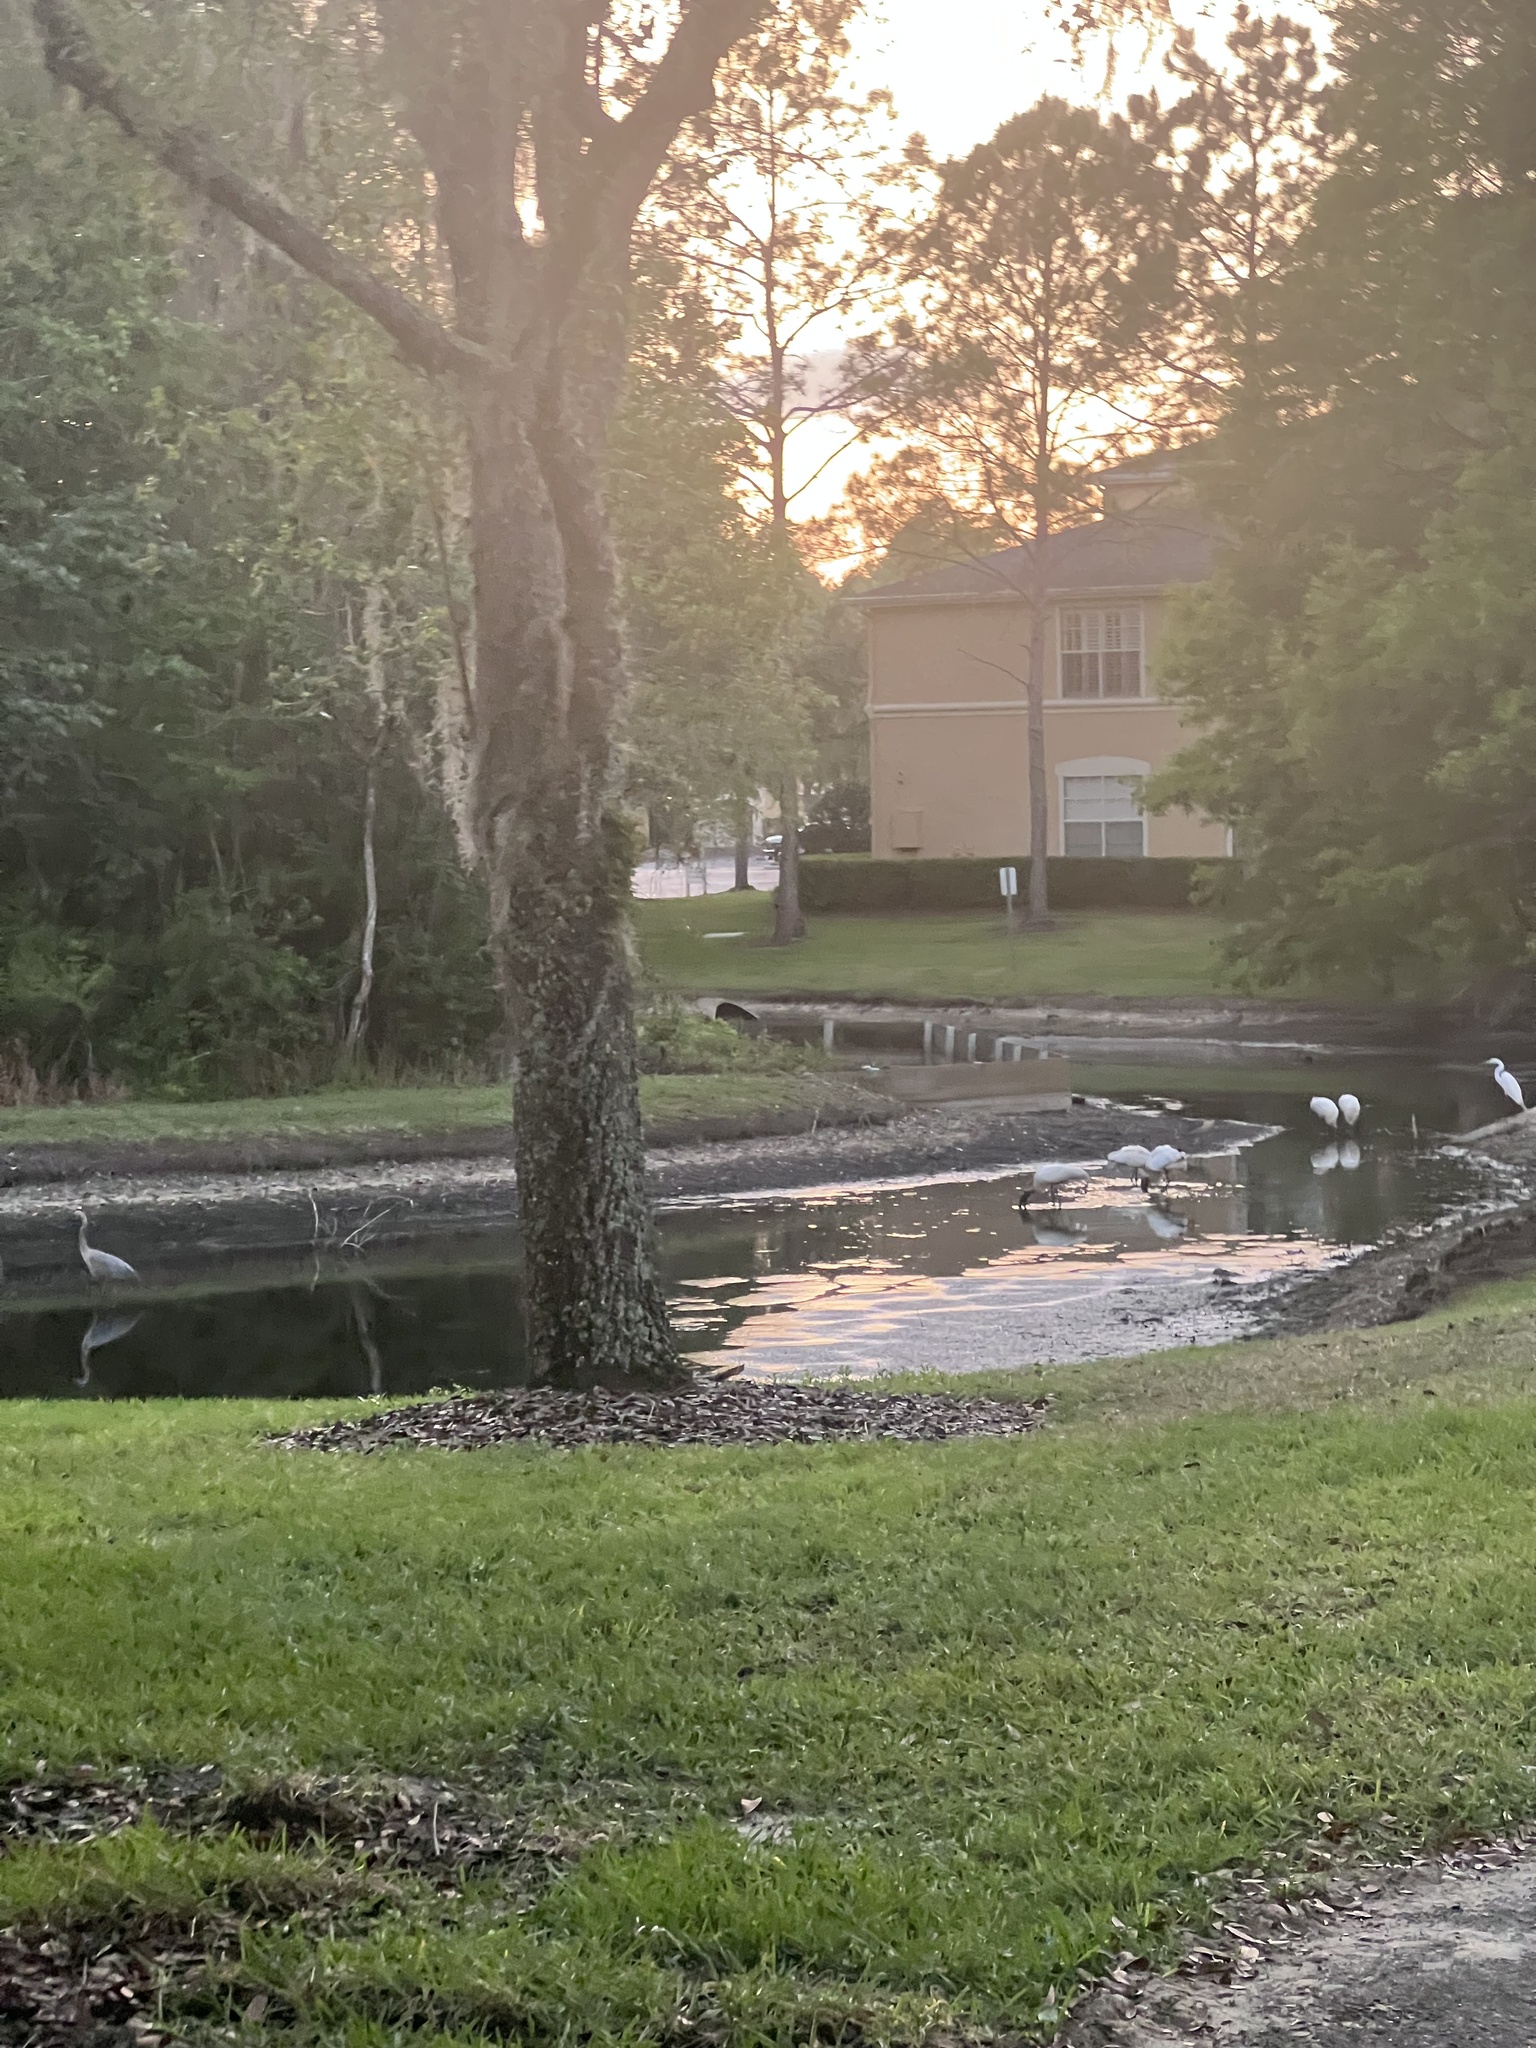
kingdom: Animalia
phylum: Chordata
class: Aves
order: Ciconiiformes
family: Ciconiidae
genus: Mycteria
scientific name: Mycteria americana
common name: Wood stork
